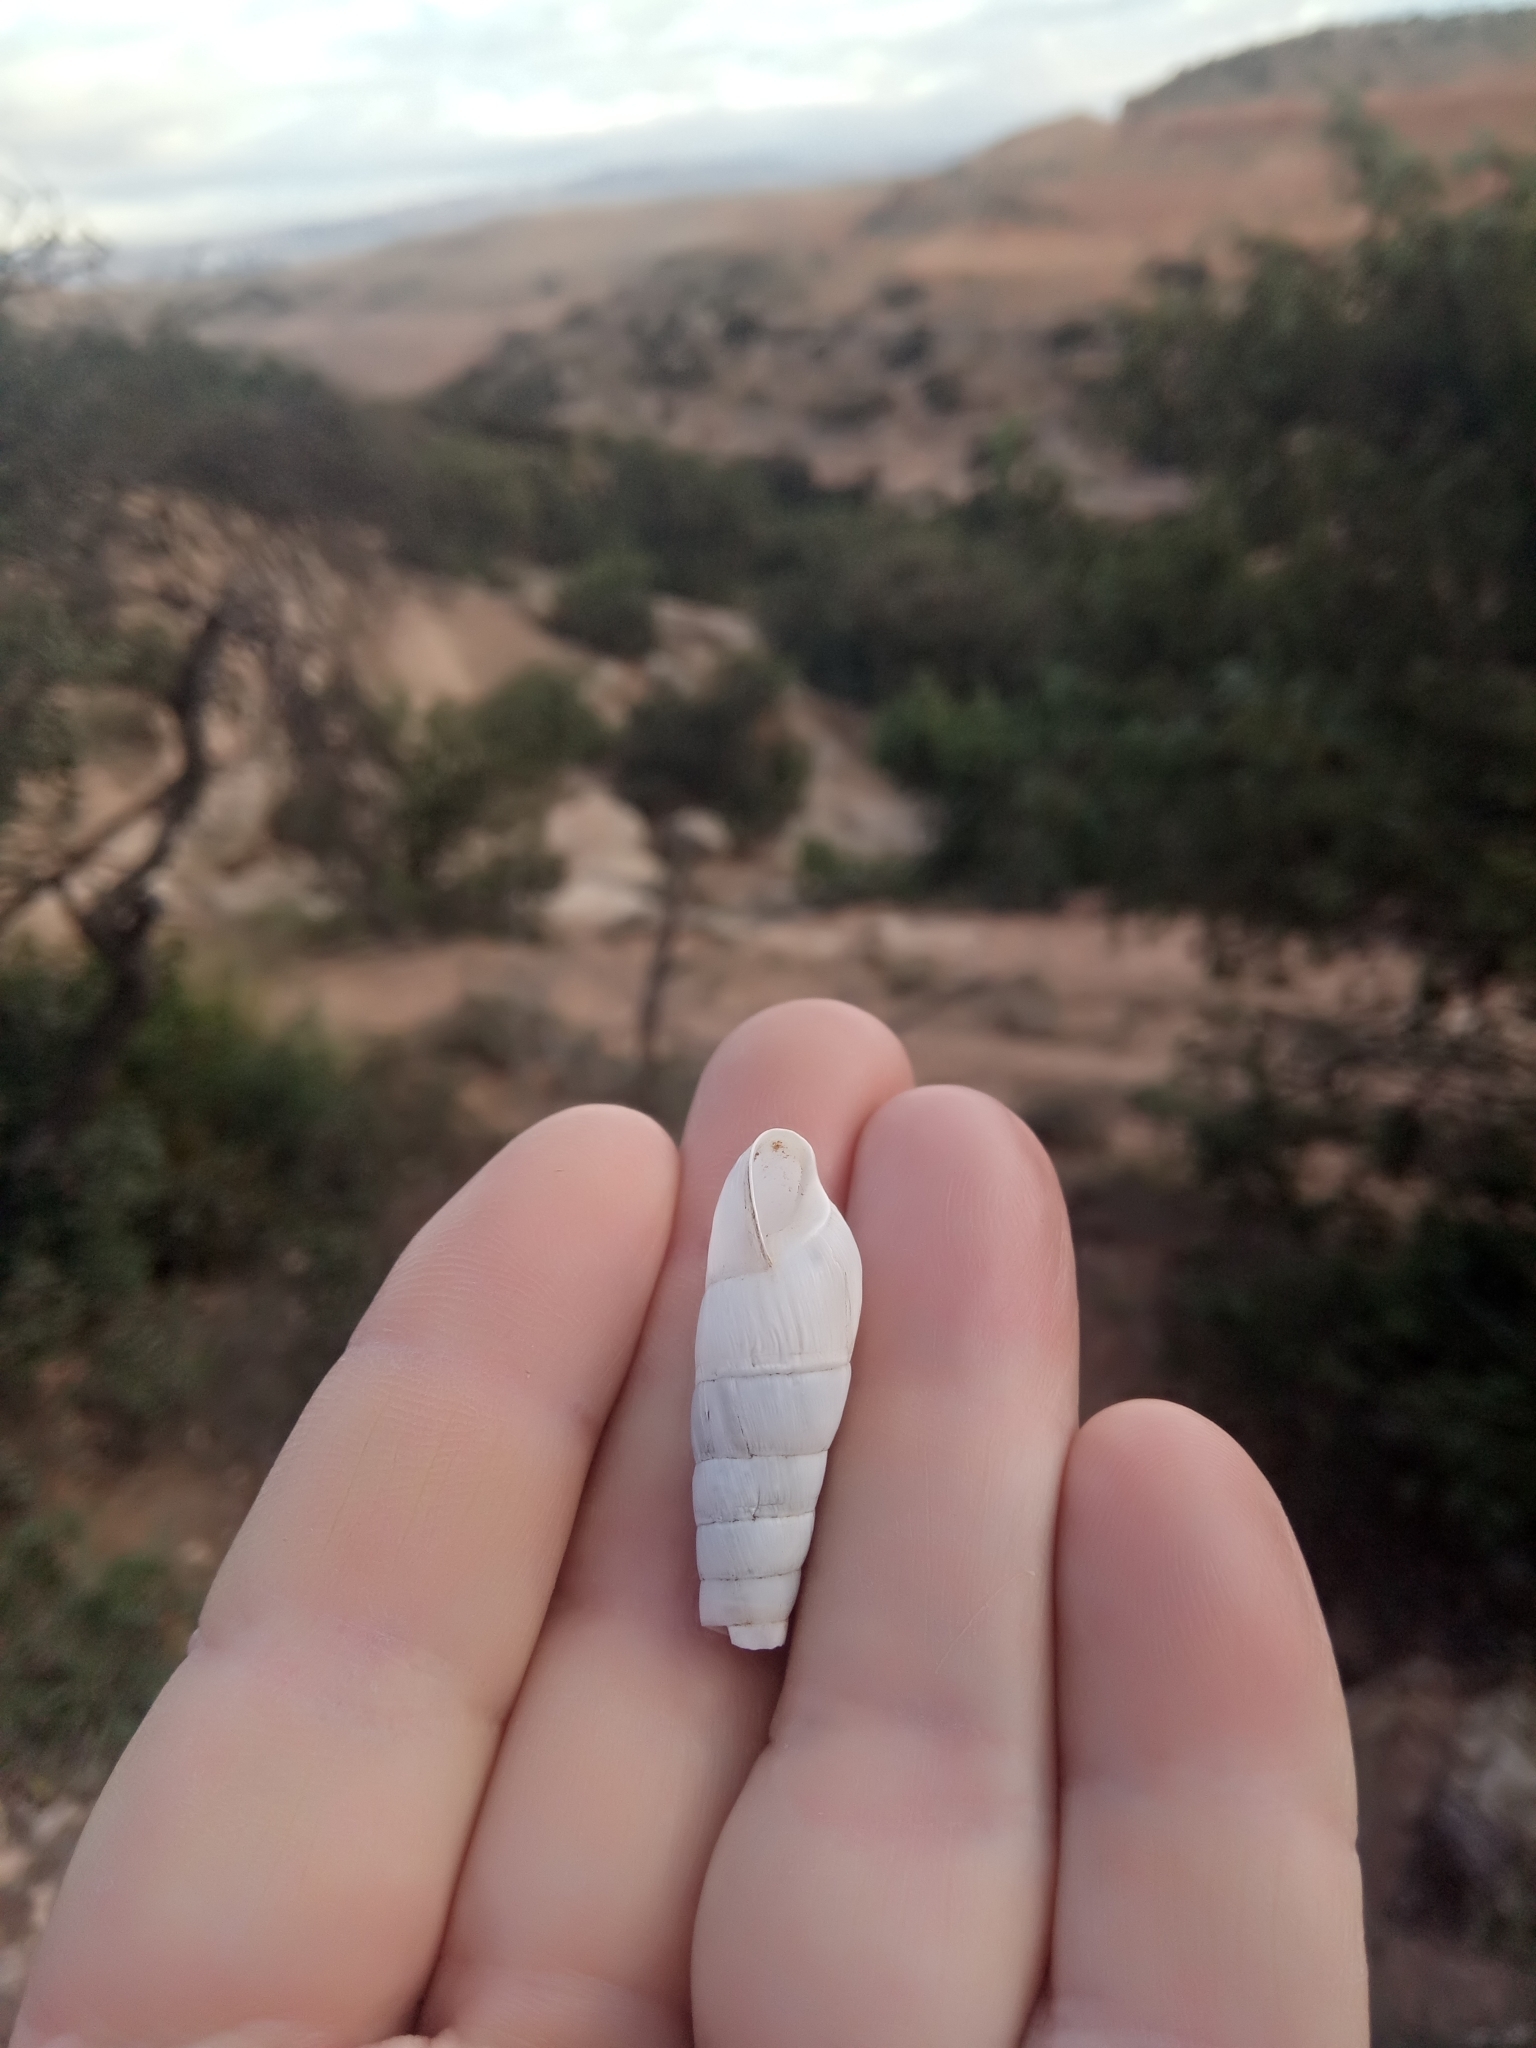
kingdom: Animalia
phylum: Mollusca
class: Gastropoda
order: Stylommatophora
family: Achatinidae
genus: Rumina
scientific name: Rumina decollata
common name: Decollate snail
